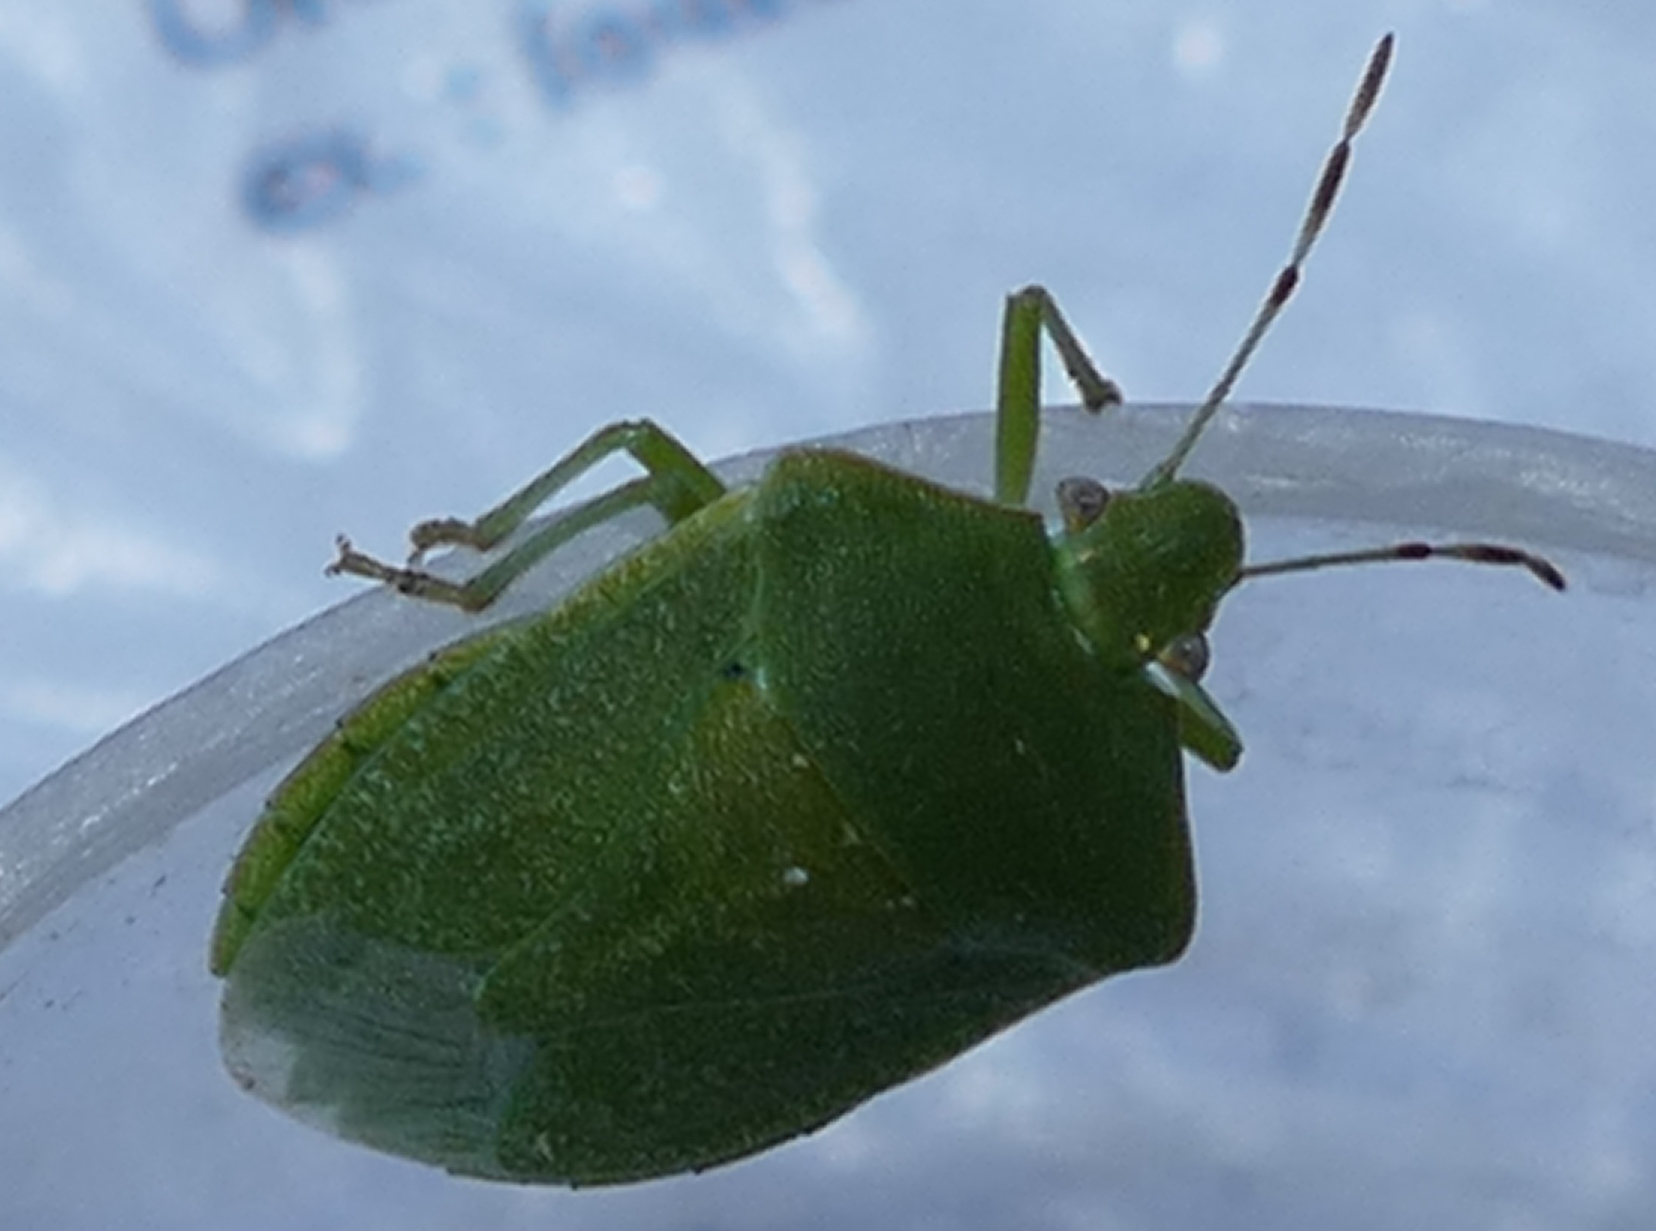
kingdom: Animalia
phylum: Arthropoda
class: Insecta
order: Hemiptera
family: Pentatomidae
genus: Nezara
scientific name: Nezara viridula
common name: Southern green stink bug
